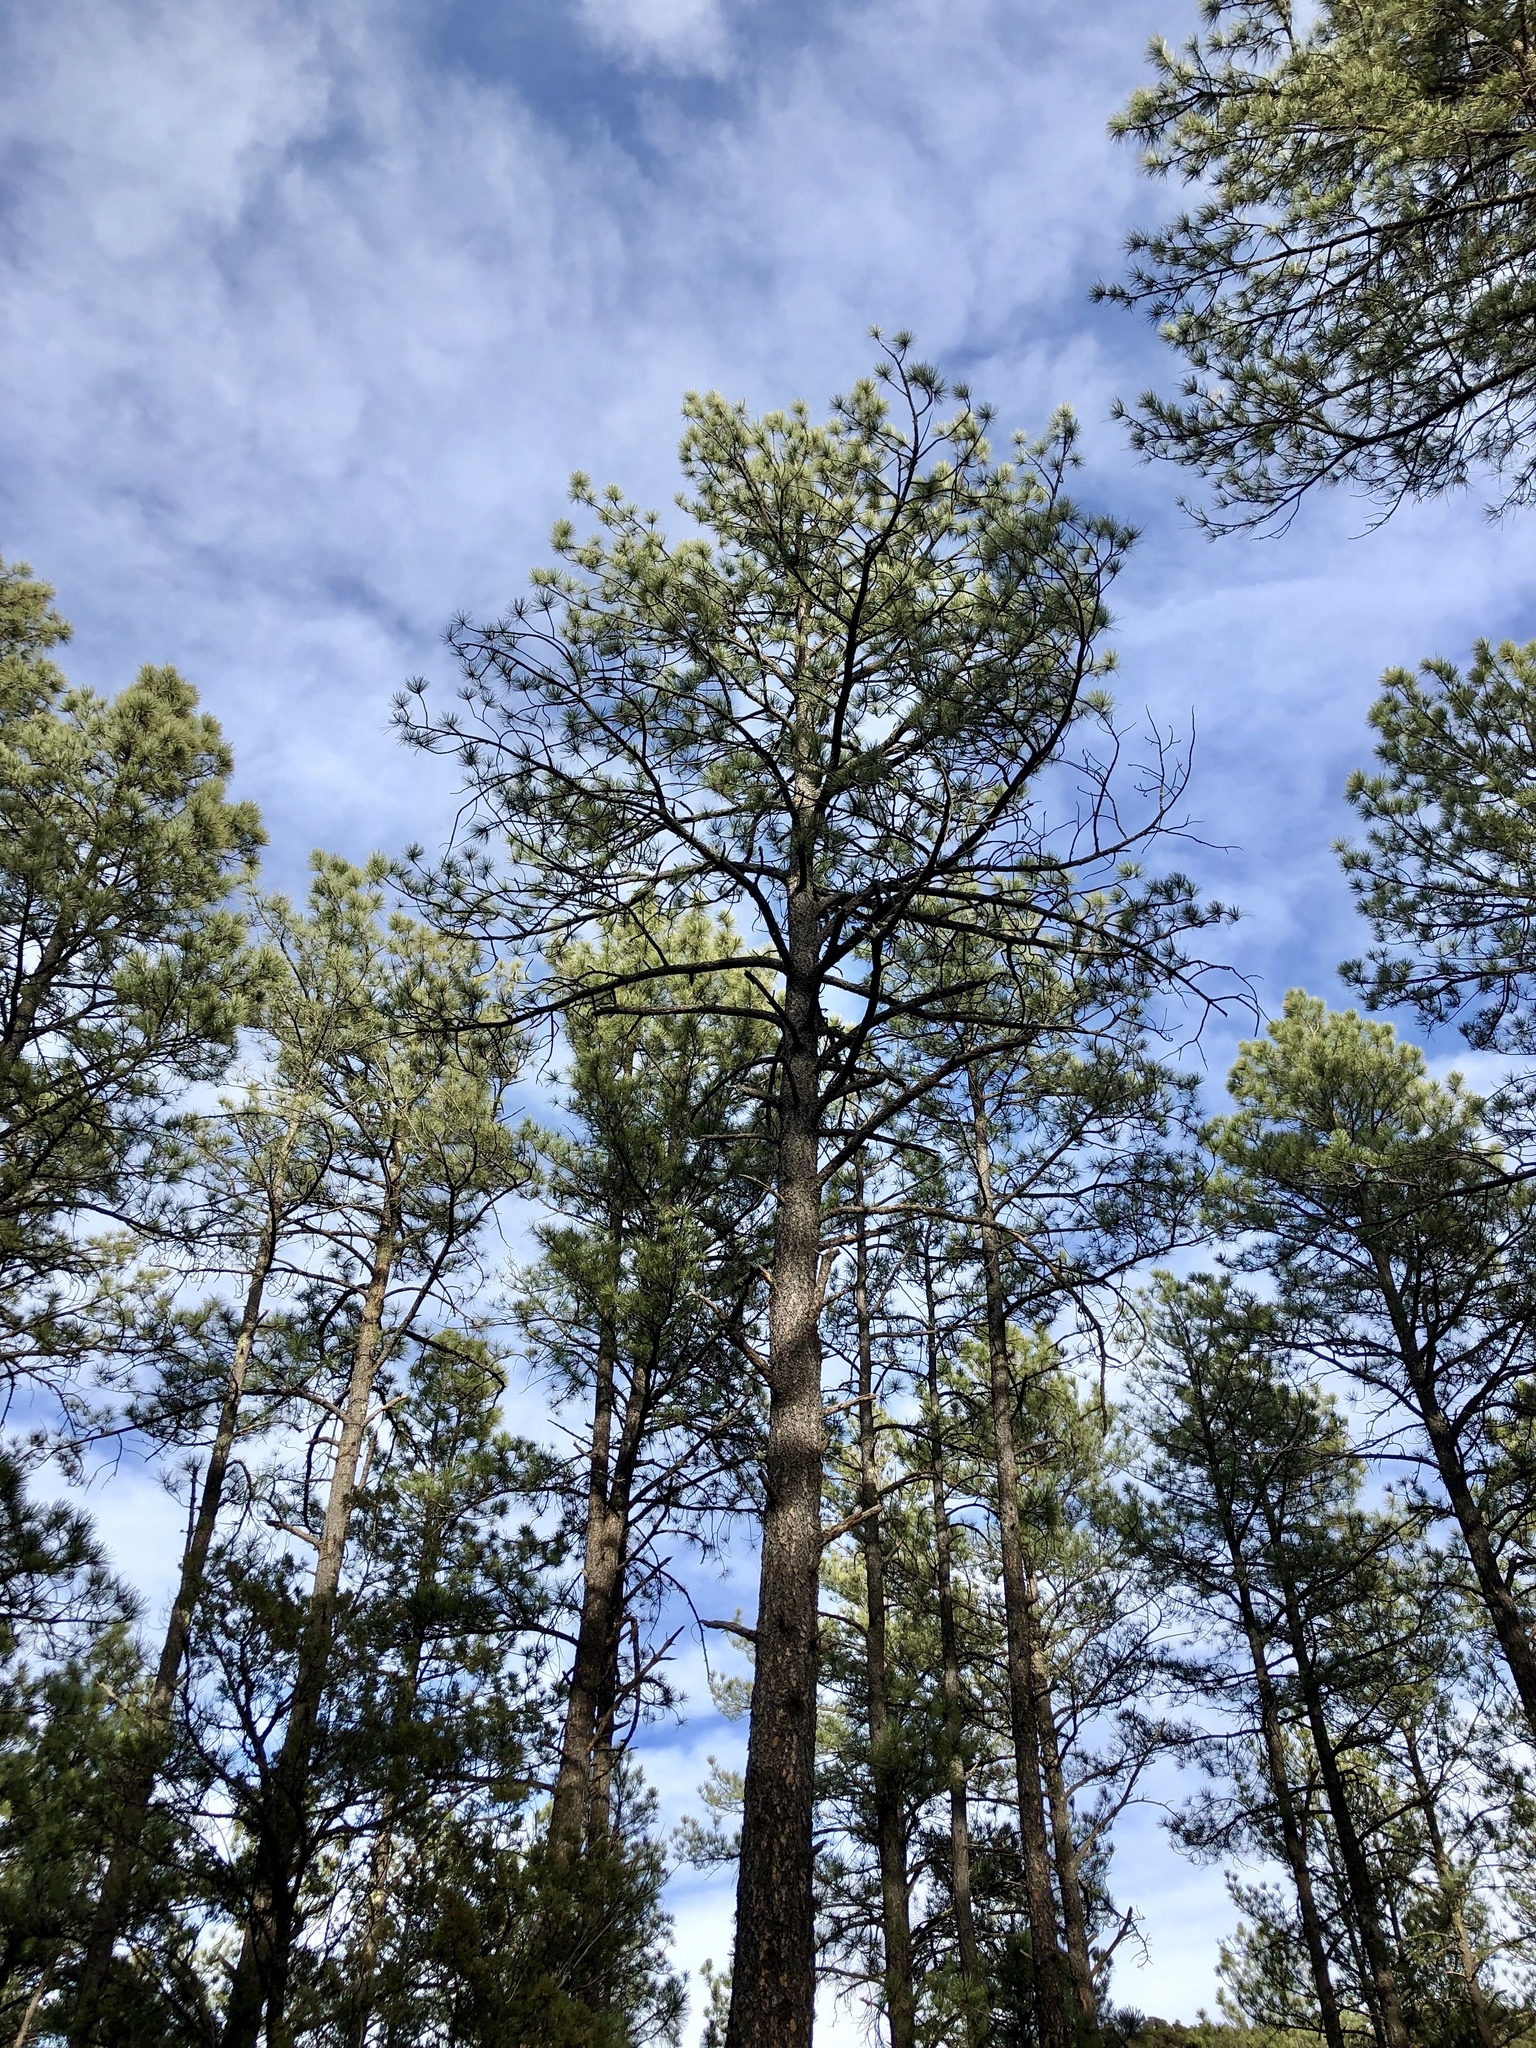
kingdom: Plantae
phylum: Tracheophyta
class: Pinopsida
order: Pinales
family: Pinaceae
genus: Pinus
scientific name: Pinus ponderosa
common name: Western yellow-pine
